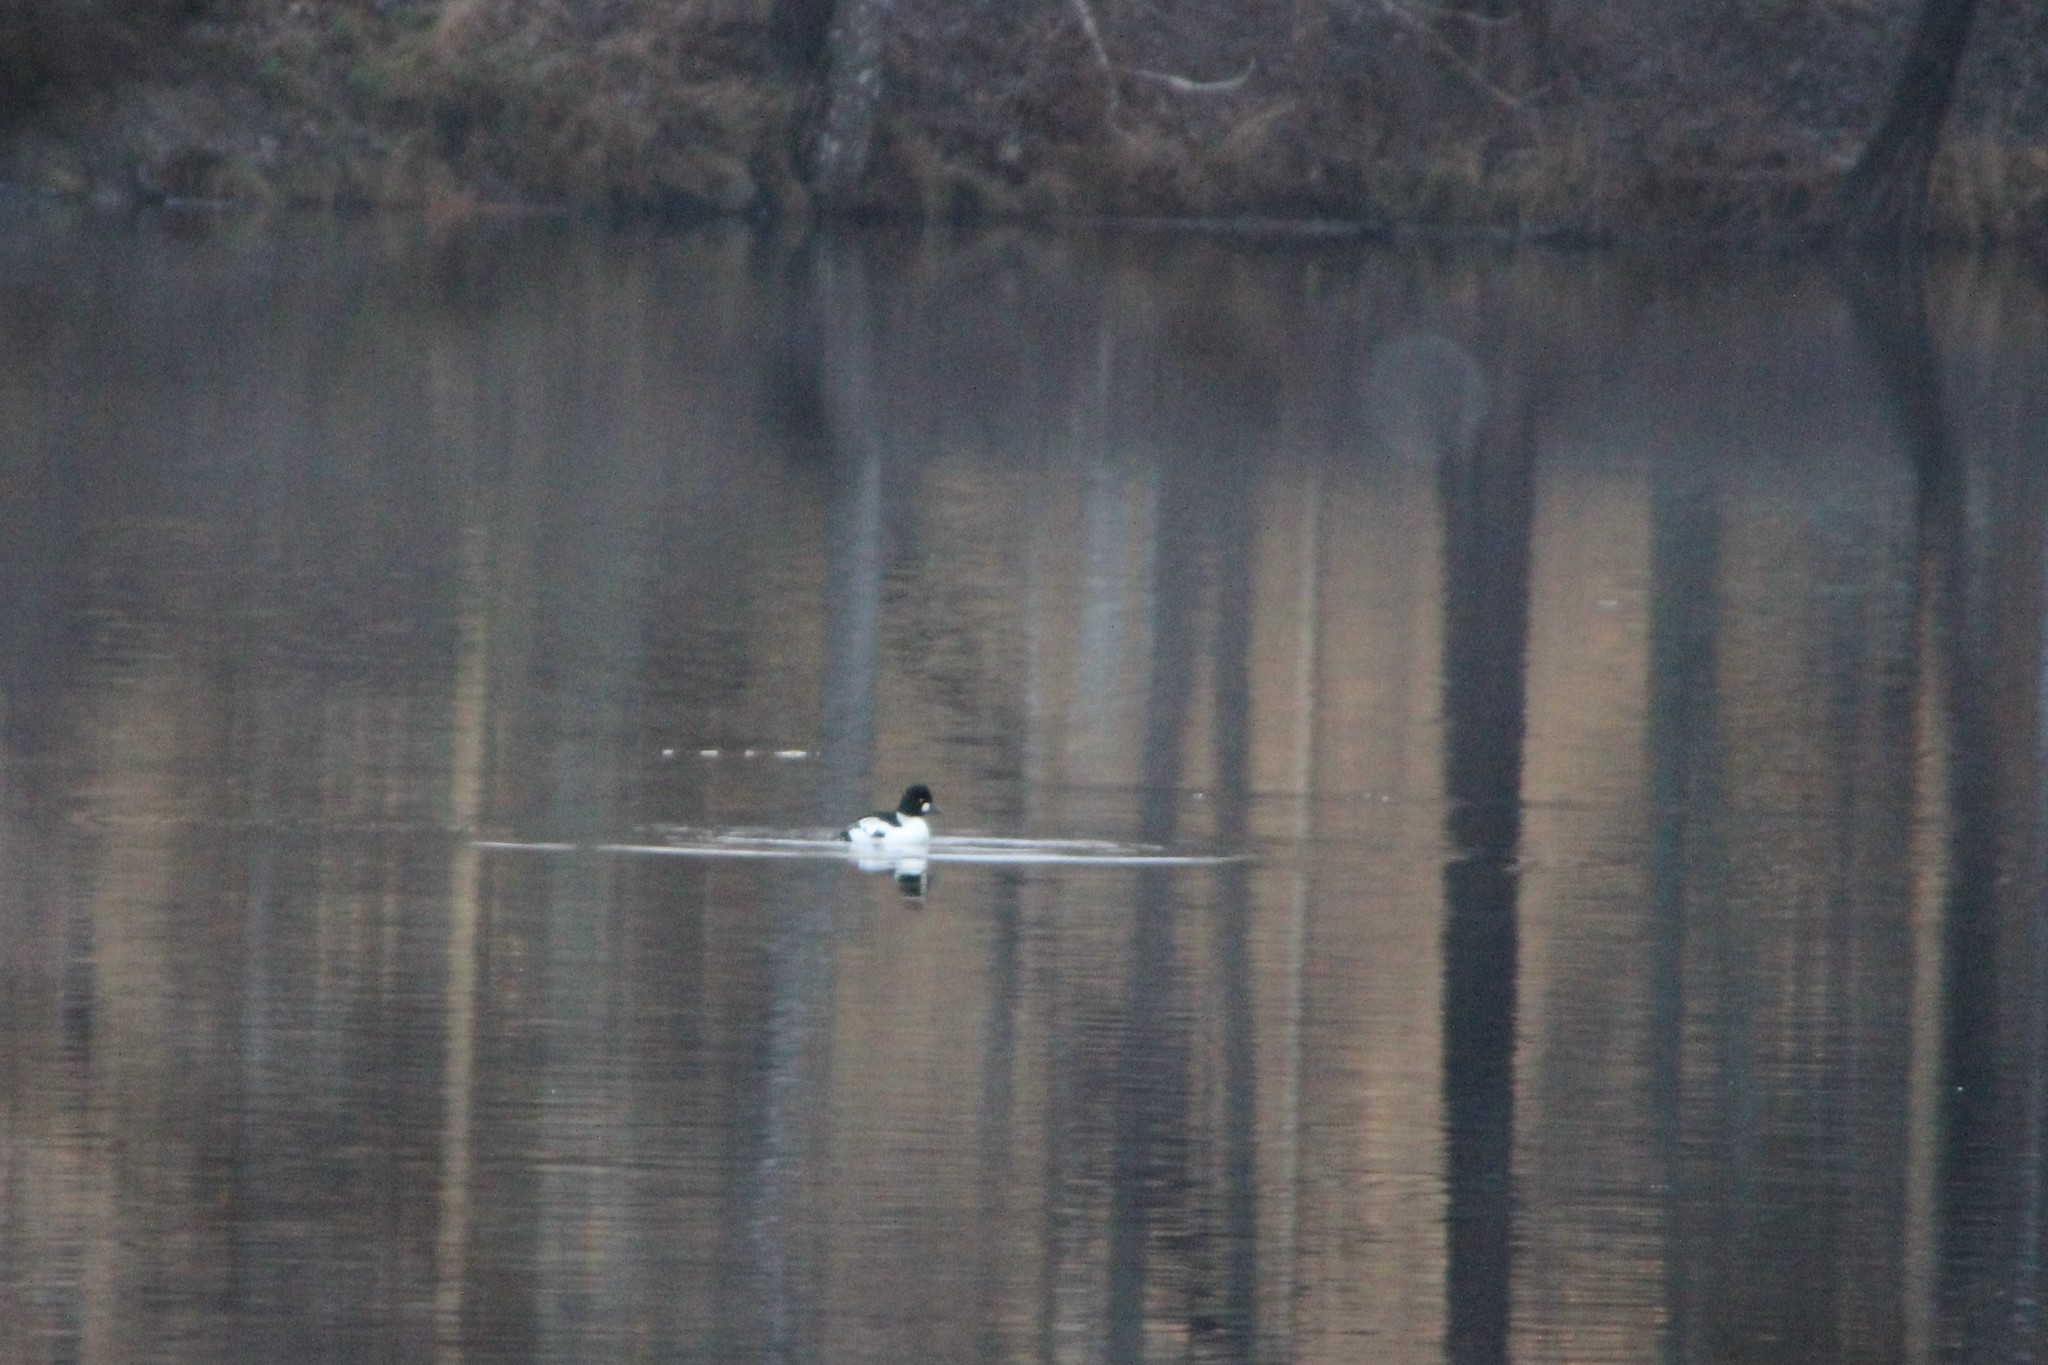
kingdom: Animalia
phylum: Chordata
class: Aves
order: Anseriformes
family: Anatidae
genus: Bucephala
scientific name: Bucephala clangula
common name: Common goldeneye
